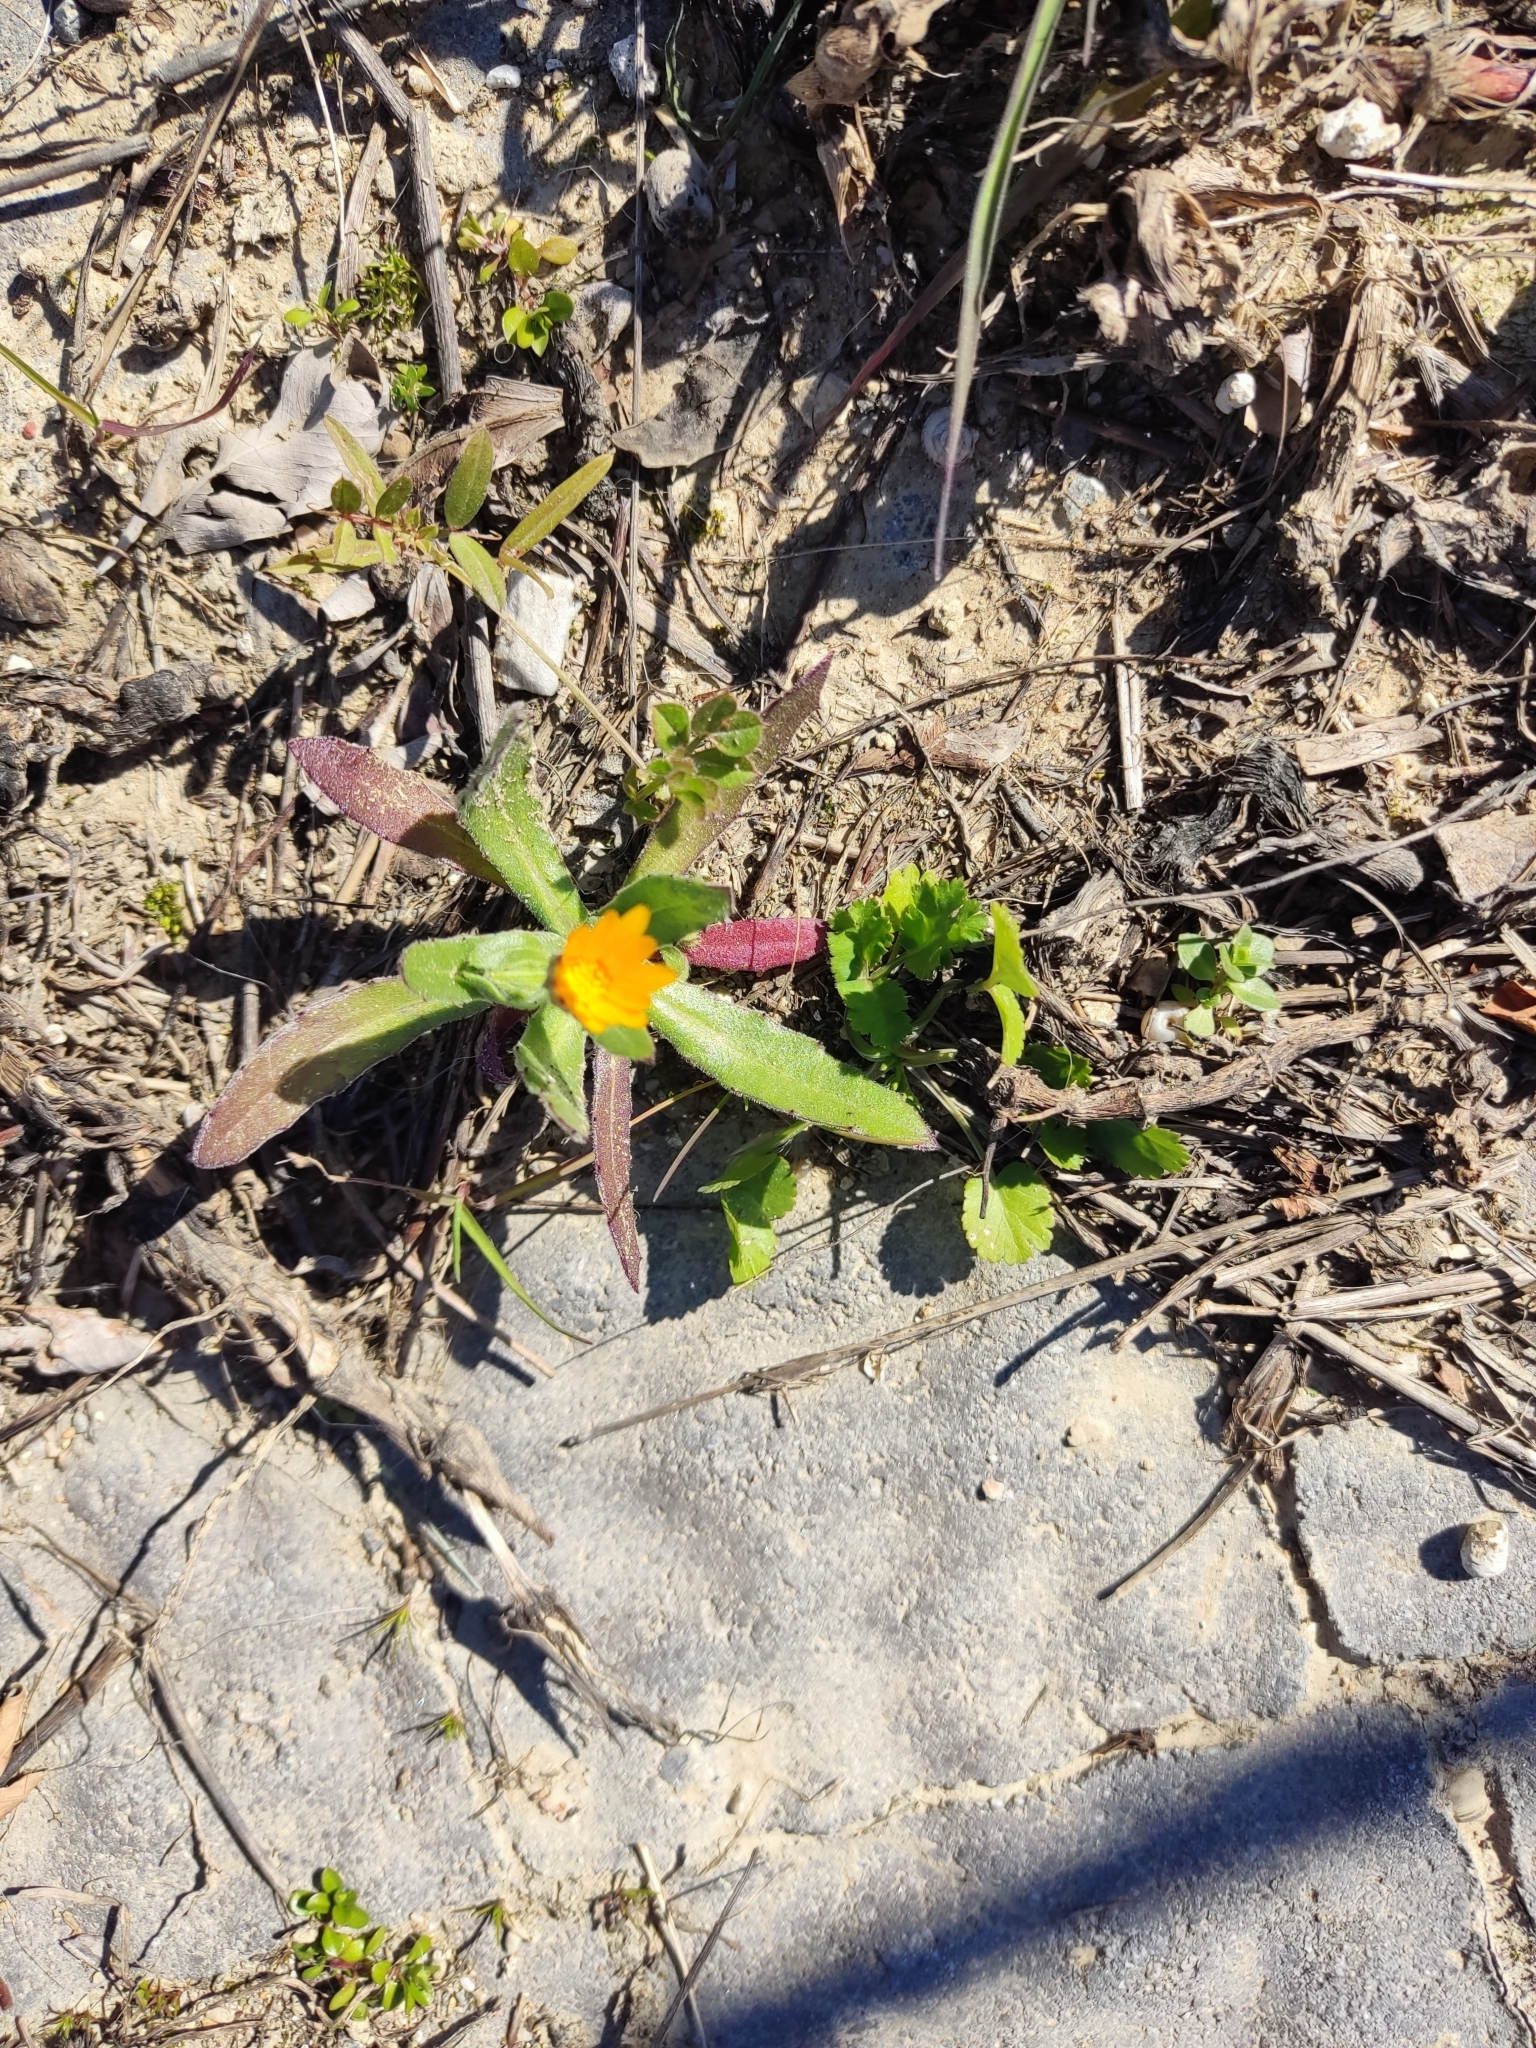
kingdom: Plantae
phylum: Tracheophyta
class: Magnoliopsida
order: Asterales
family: Asteraceae
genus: Calendula
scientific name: Calendula arvensis
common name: Field marigold
